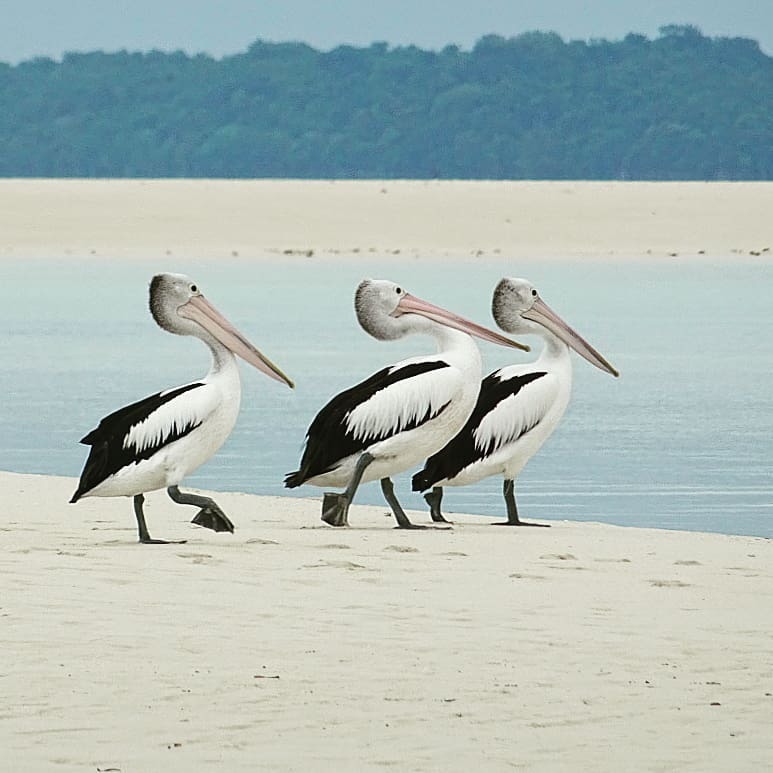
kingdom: Animalia
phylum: Chordata
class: Aves
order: Pelecaniformes
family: Pelecanidae
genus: Pelecanus
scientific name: Pelecanus conspicillatus
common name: Australian pelican
